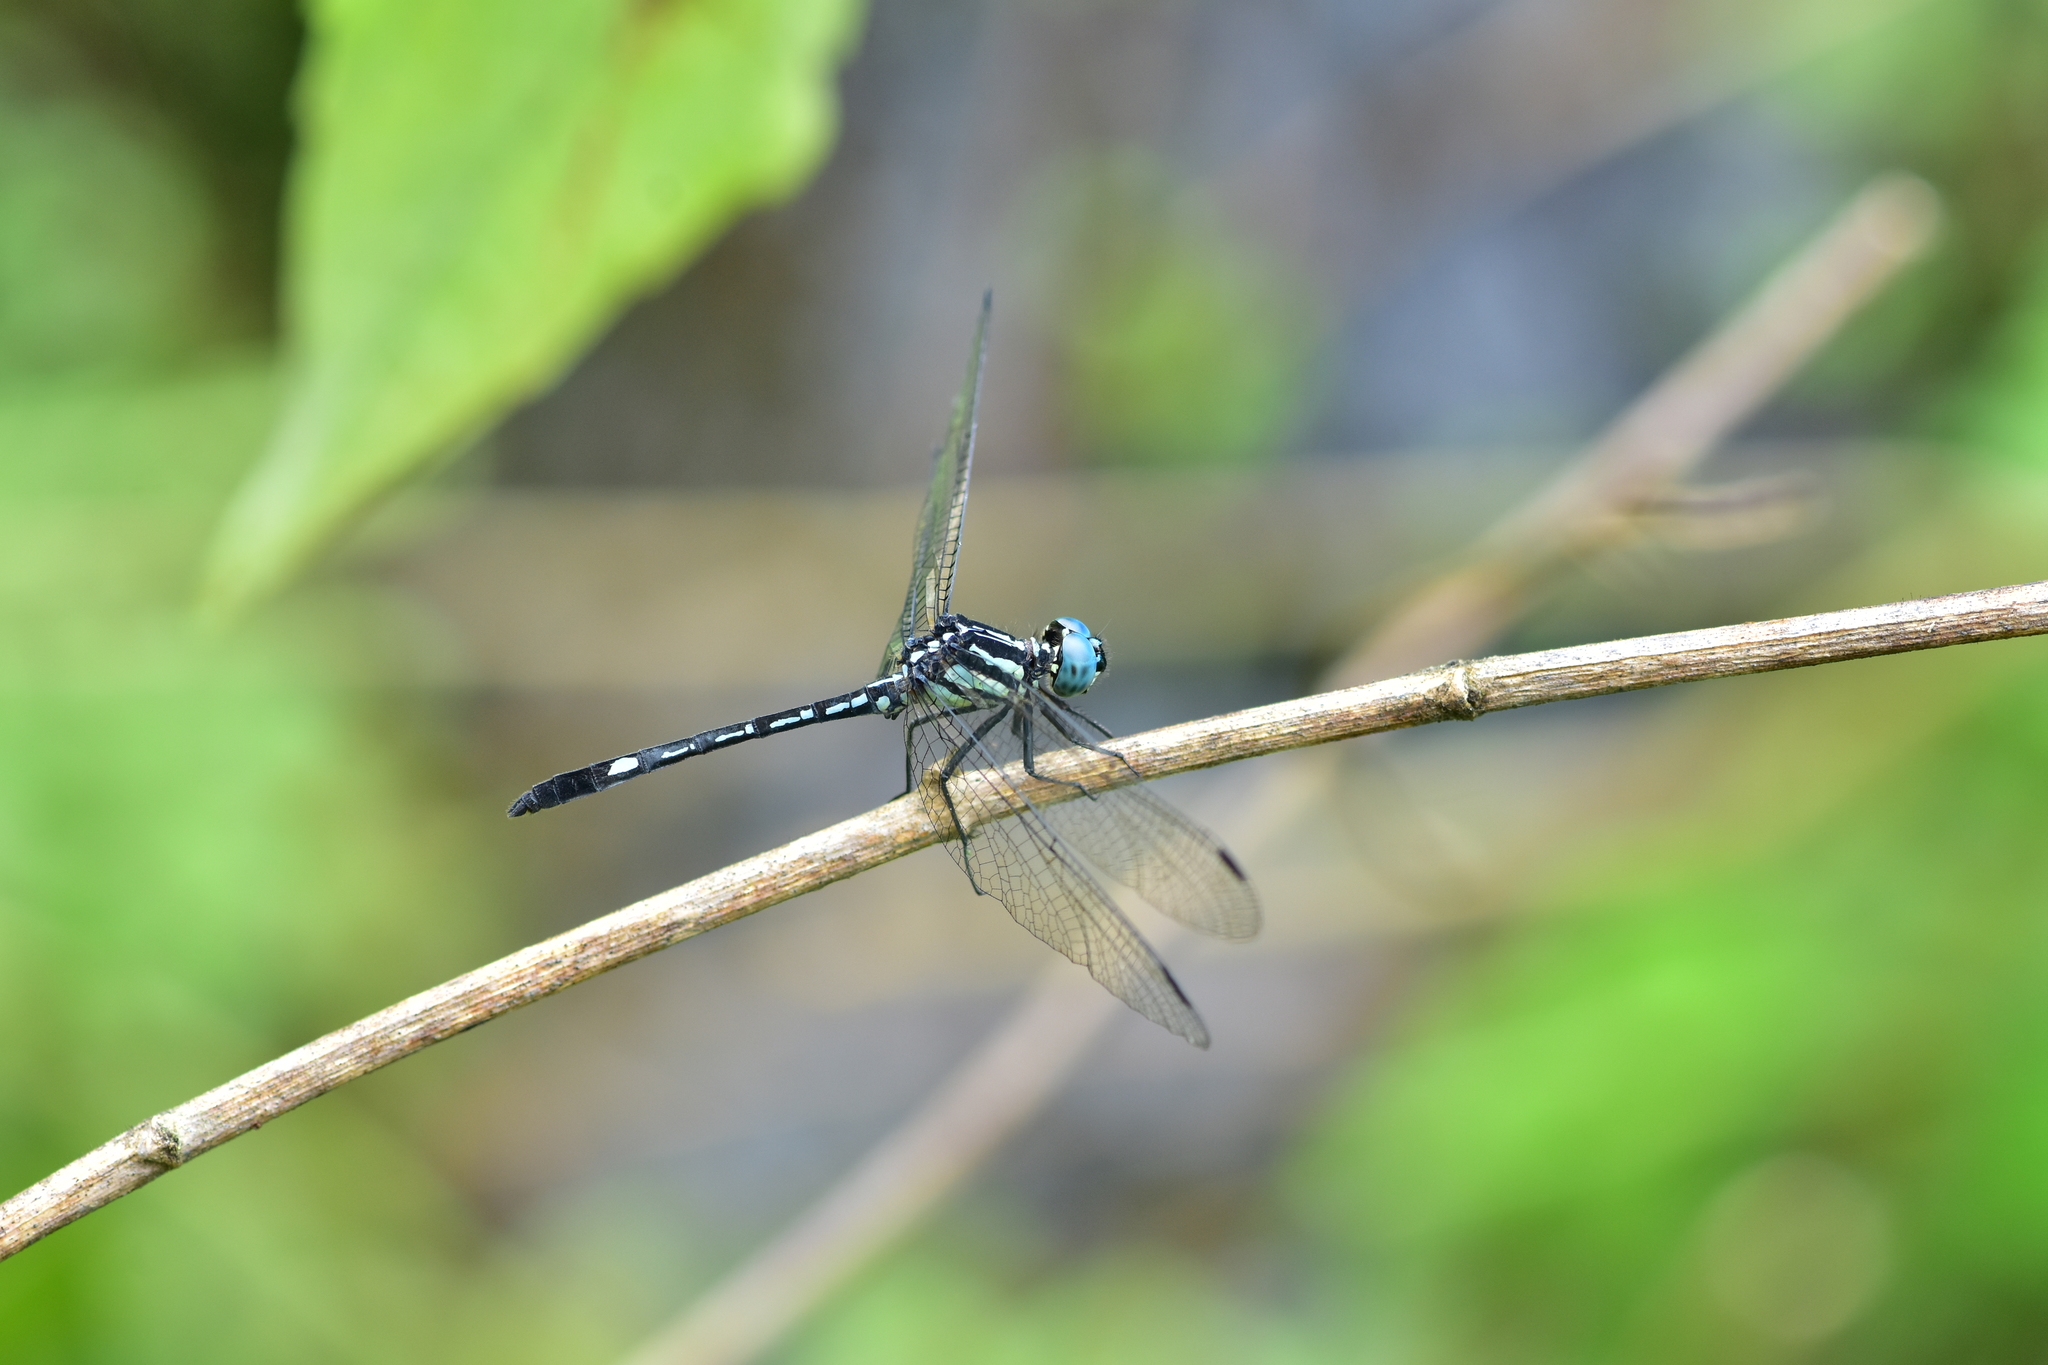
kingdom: Animalia
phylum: Arthropoda
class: Insecta
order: Odonata
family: Libellulidae
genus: Hylaeothemis
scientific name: Hylaeothemis apicalis
